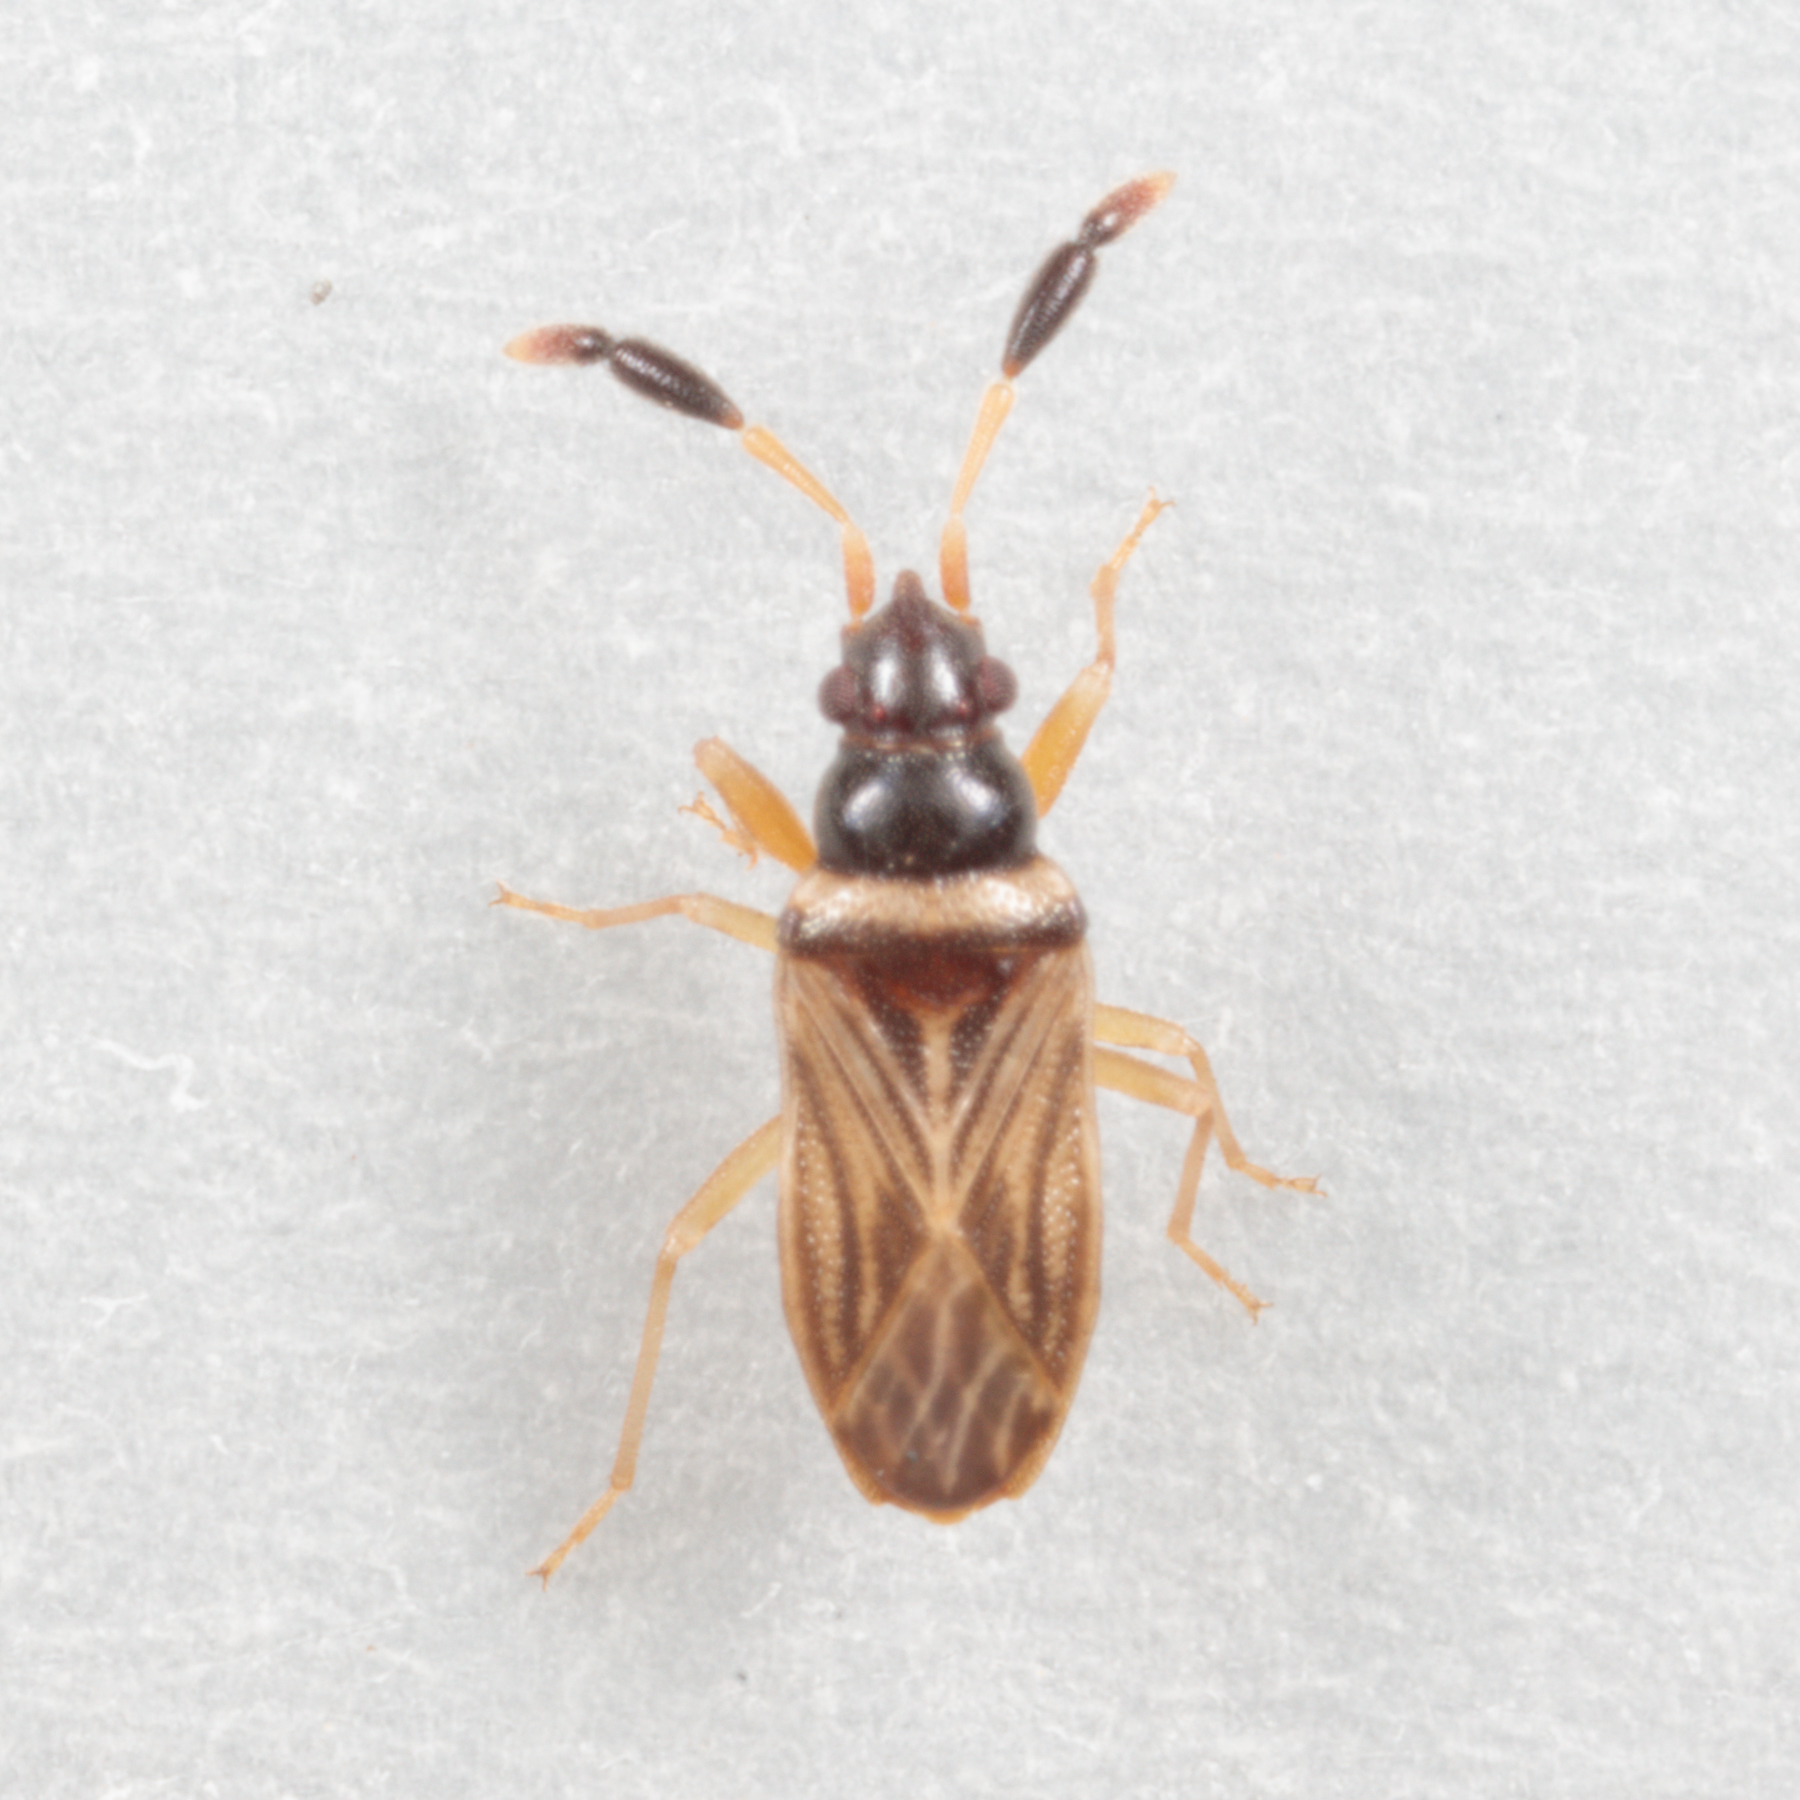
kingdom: Animalia
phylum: Arthropoda
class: Insecta
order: Hemiptera
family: Rhyparochromidae
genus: Ptochiomera
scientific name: Ptochiomera nodosa
